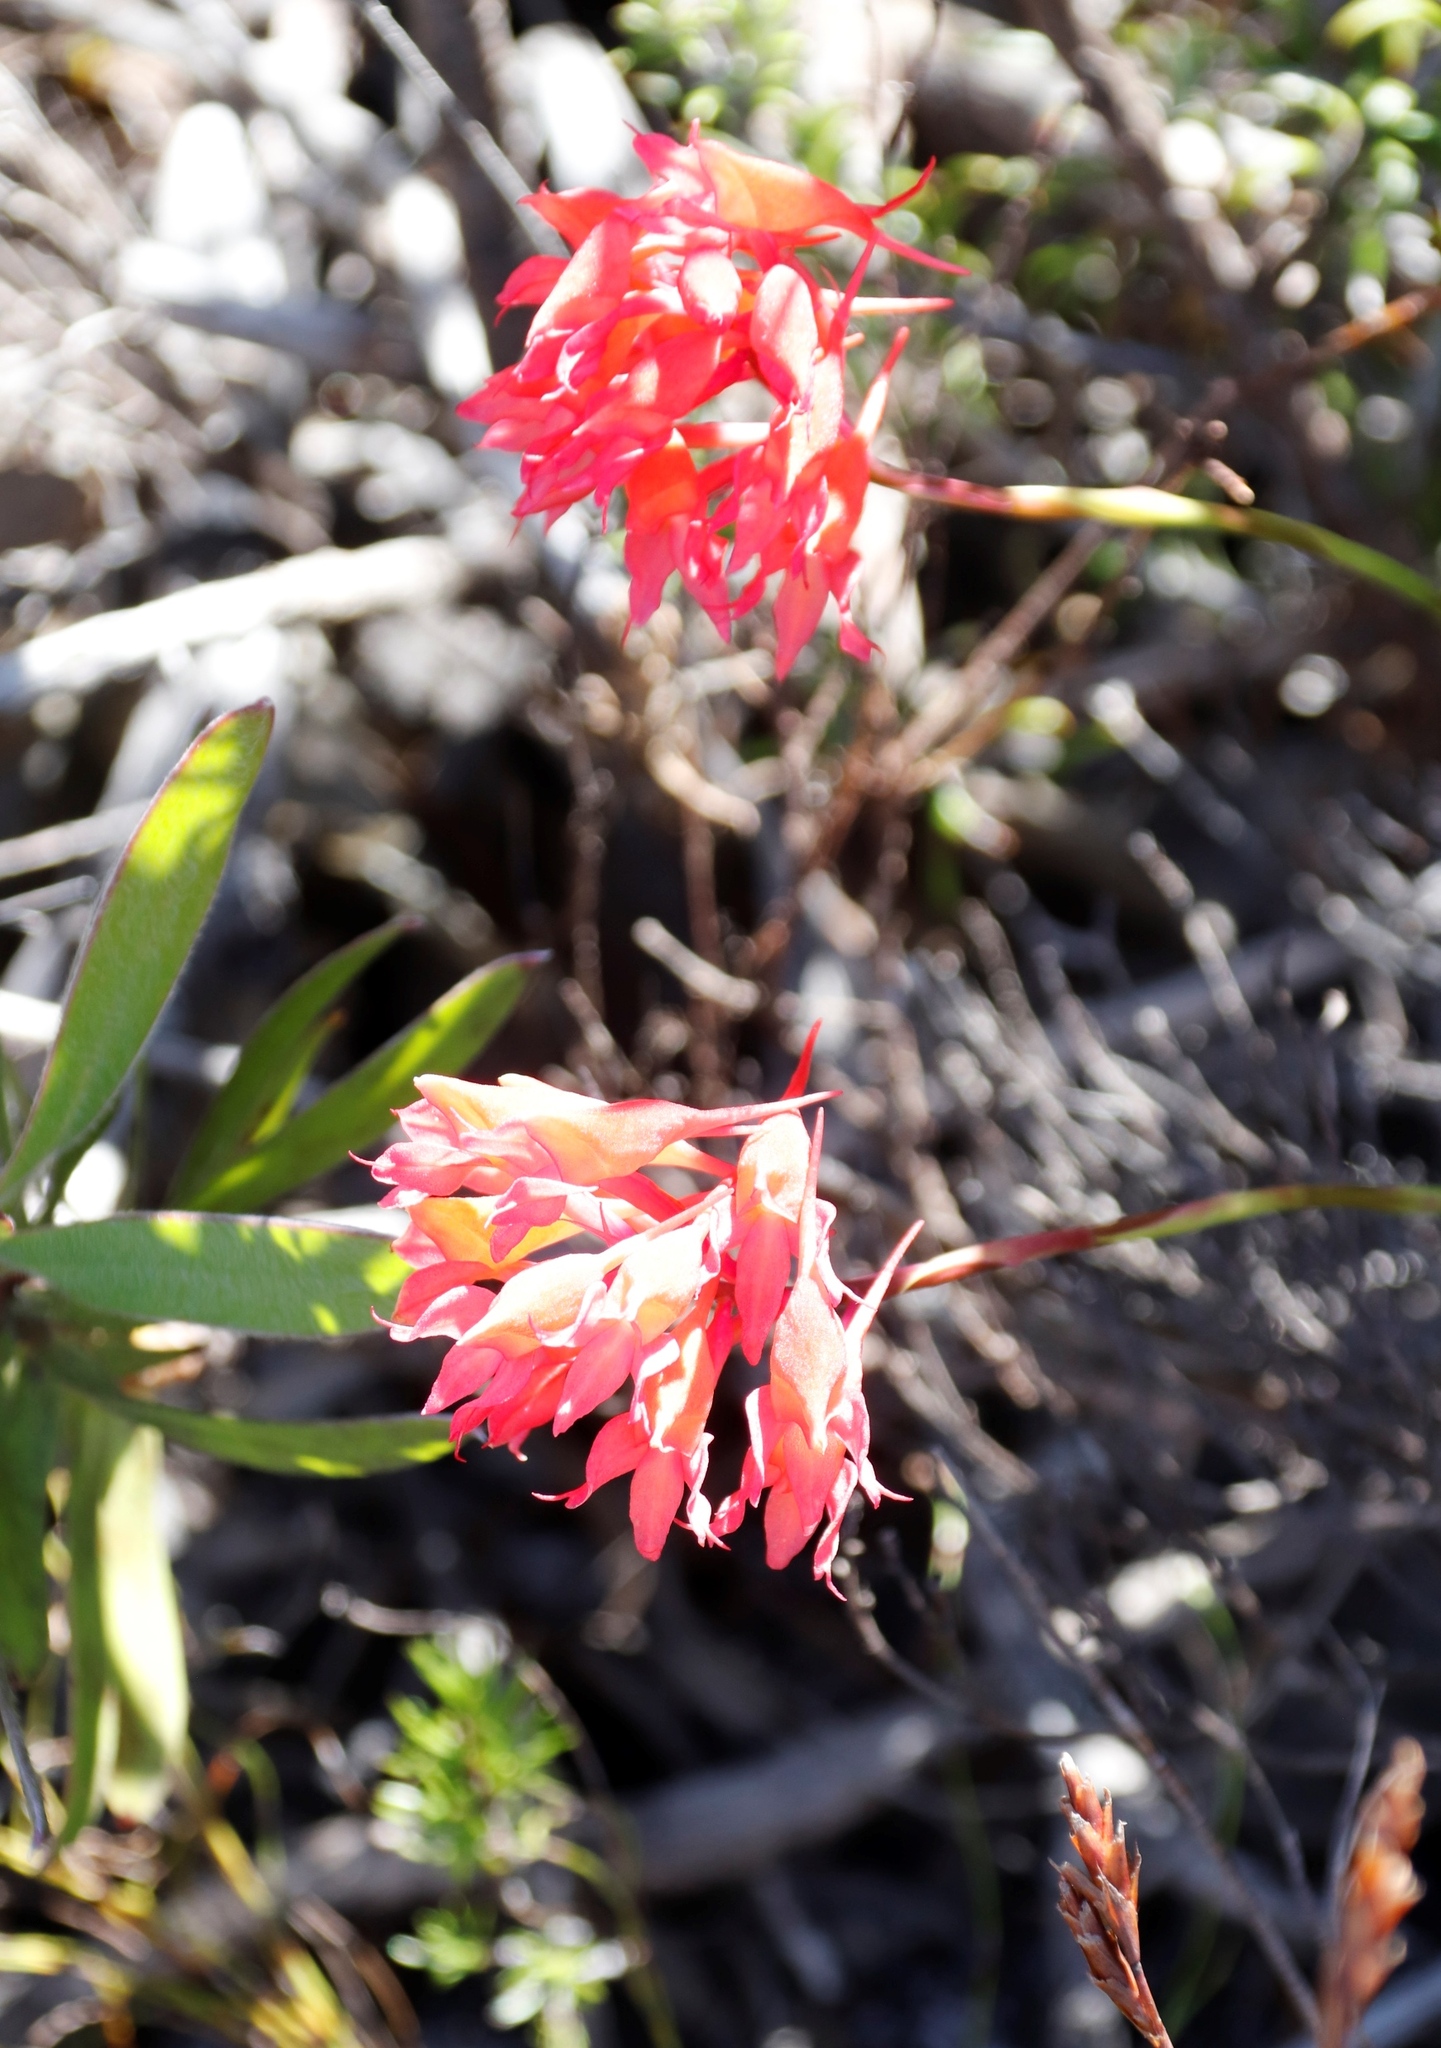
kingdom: Plantae
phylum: Tracheophyta
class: Liliopsida
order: Asparagales
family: Orchidaceae
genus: Disa
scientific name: Disa ferruginea
